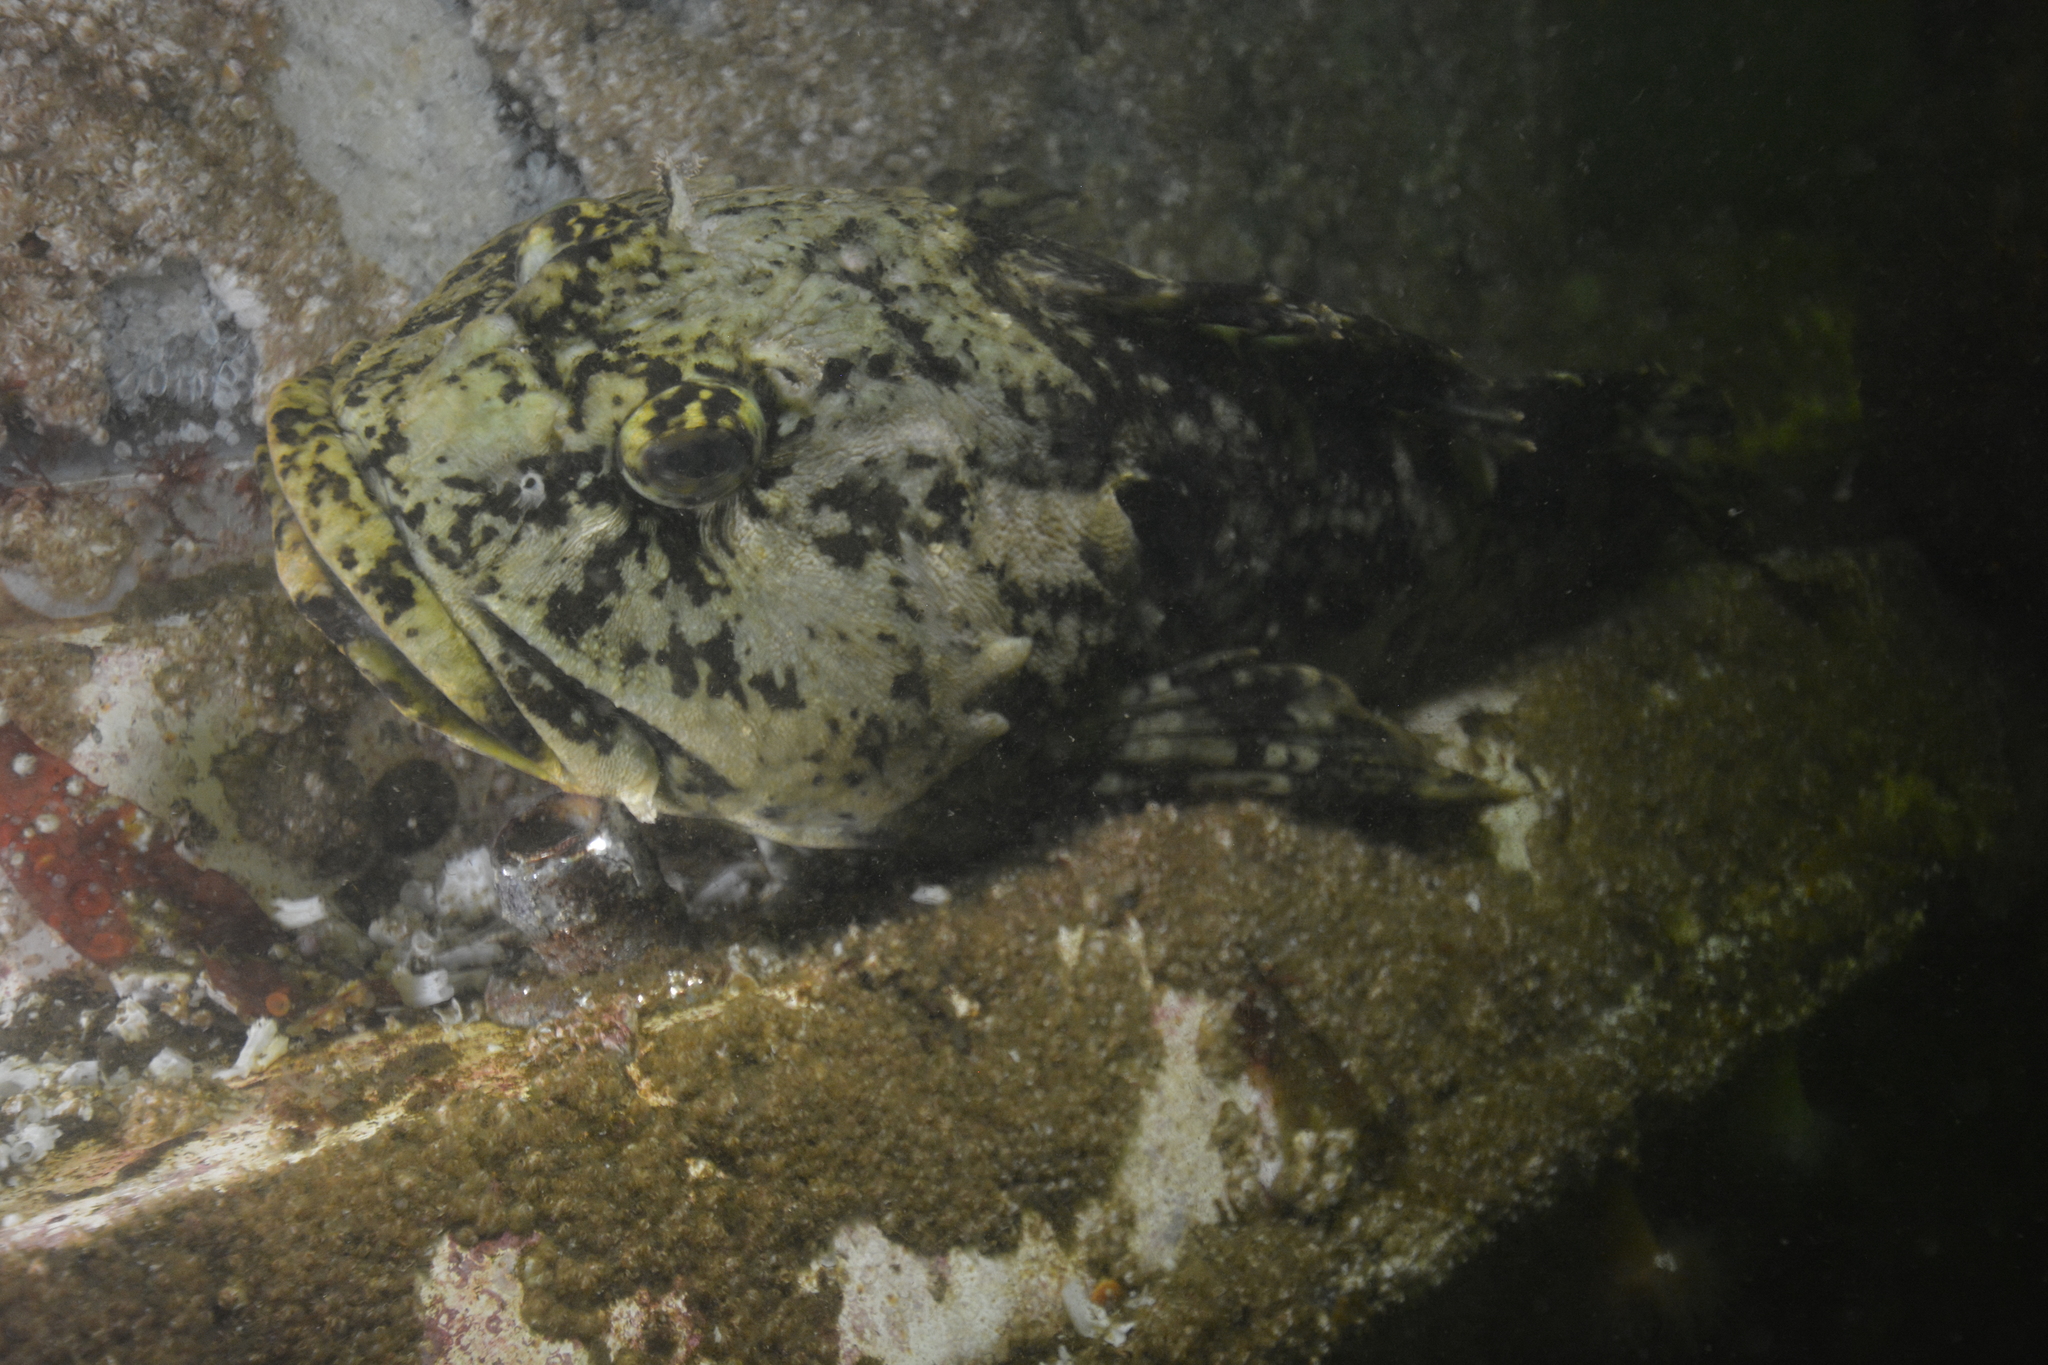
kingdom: Animalia
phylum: Chordata
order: Scorpaeniformes
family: Cottidae
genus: Scorpaenichthys
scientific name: Scorpaenichthys marmoratus
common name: Cabezon
